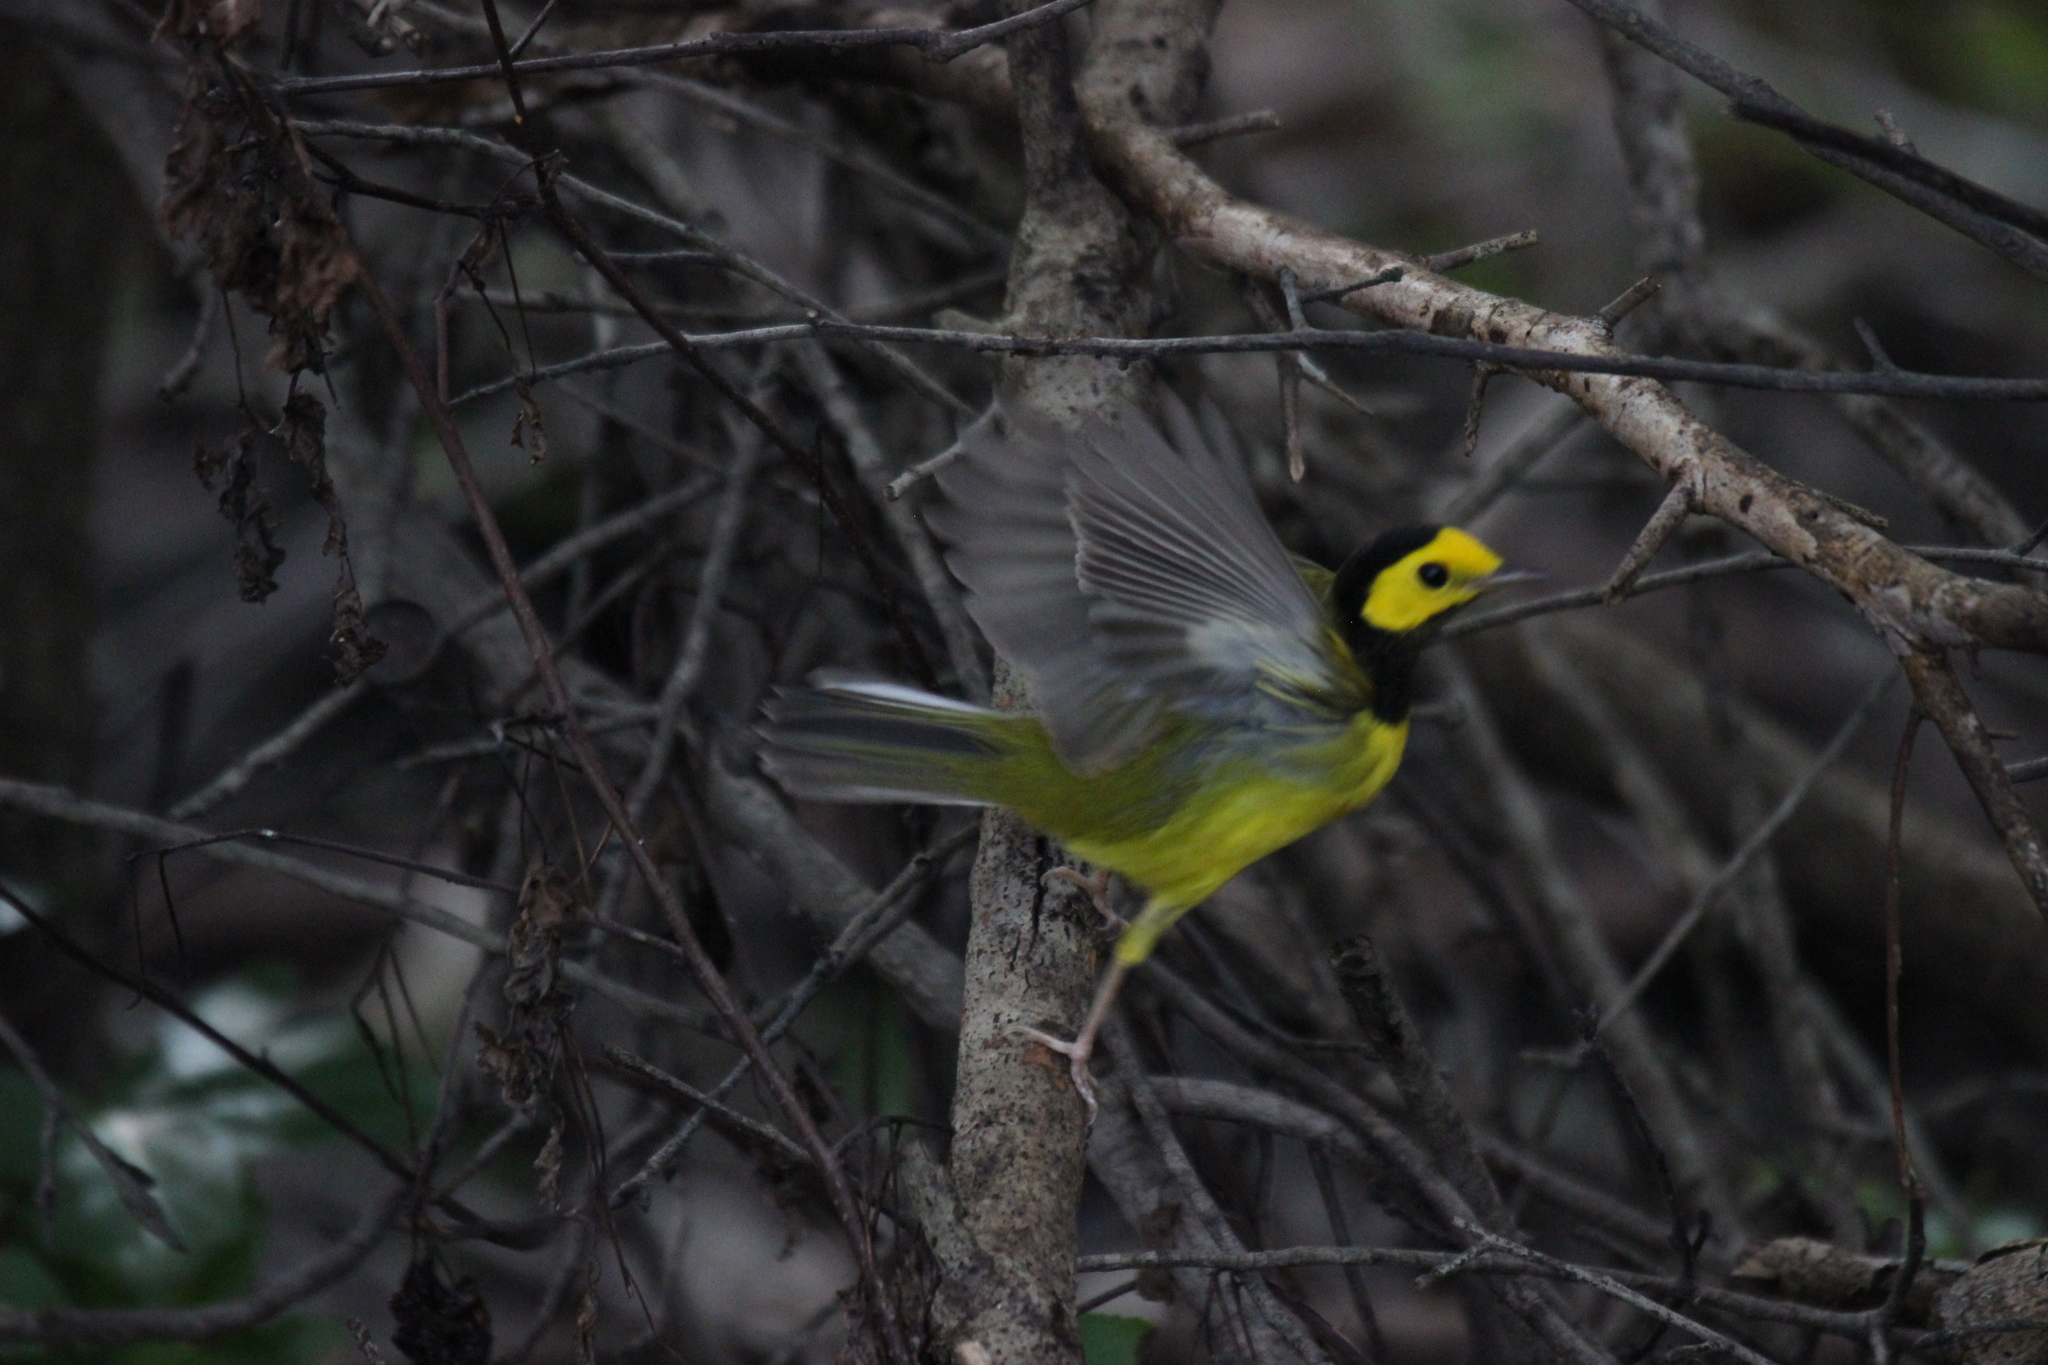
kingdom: Animalia
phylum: Chordata
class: Aves
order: Passeriformes
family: Parulidae
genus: Setophaga
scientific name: Setophaga citrina
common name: Hooded warbler
